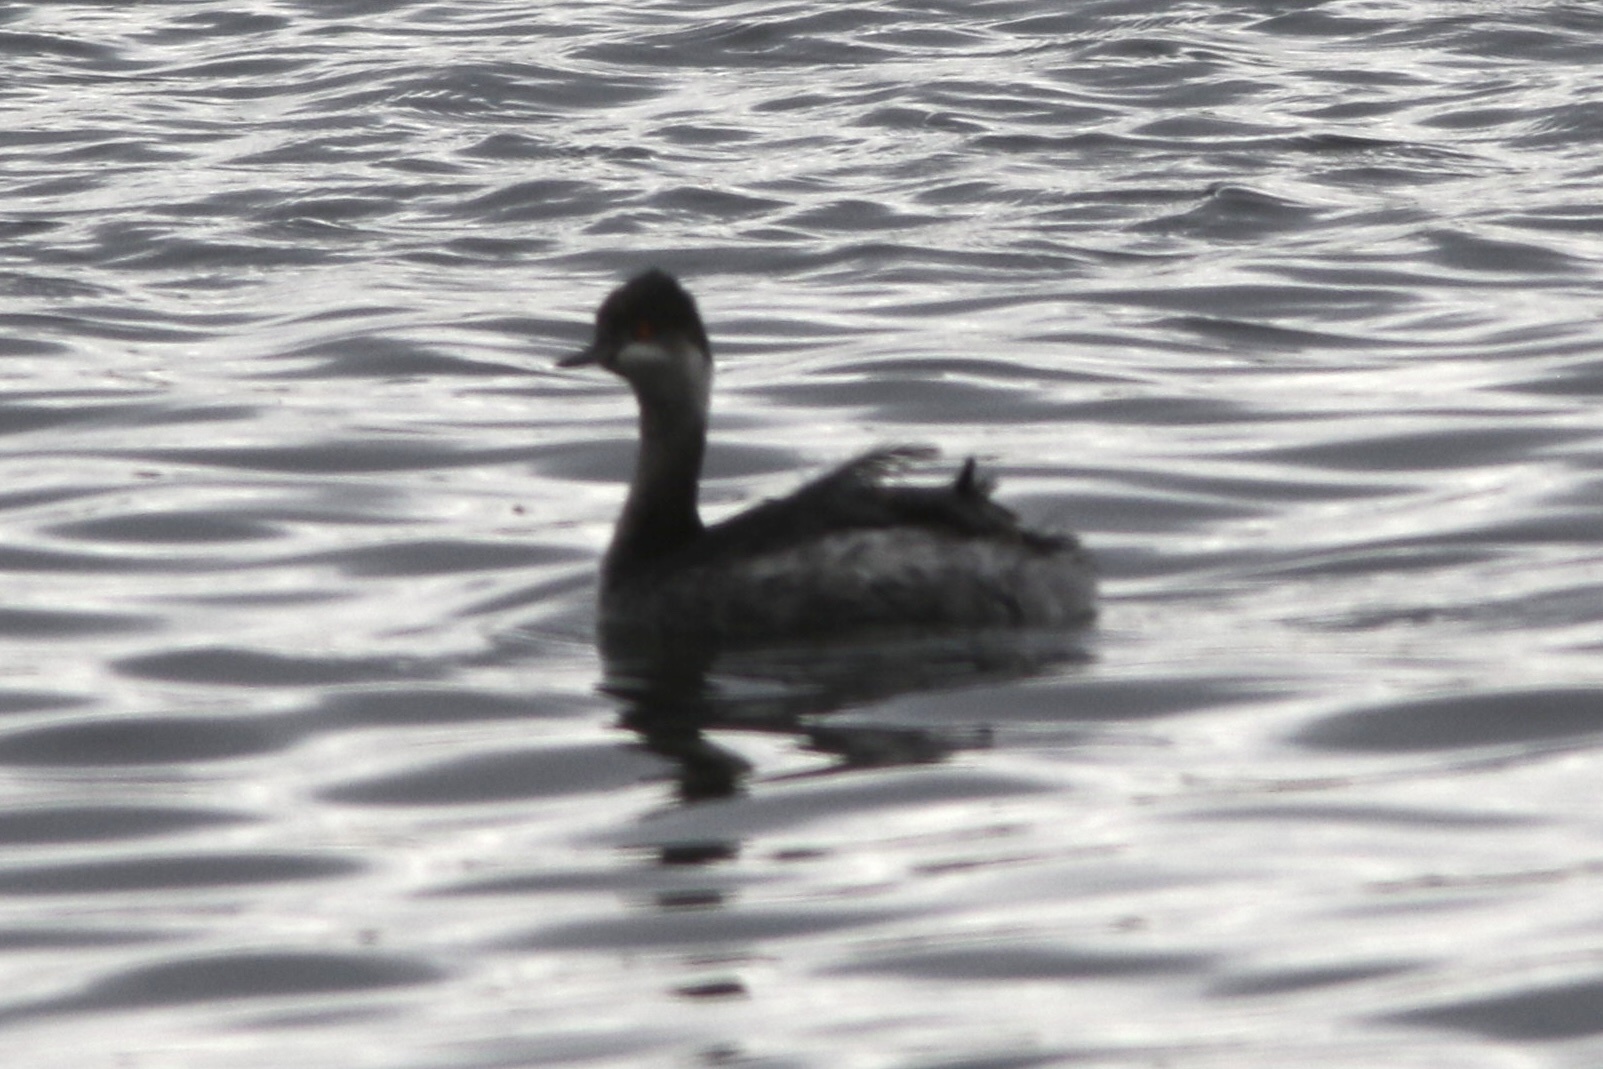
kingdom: Animalia
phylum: Chordata
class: Aves
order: Podicipediformes
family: Podicipedidae
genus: Podiceps
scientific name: Podiceps nigricollis
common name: Black-necked grebe
